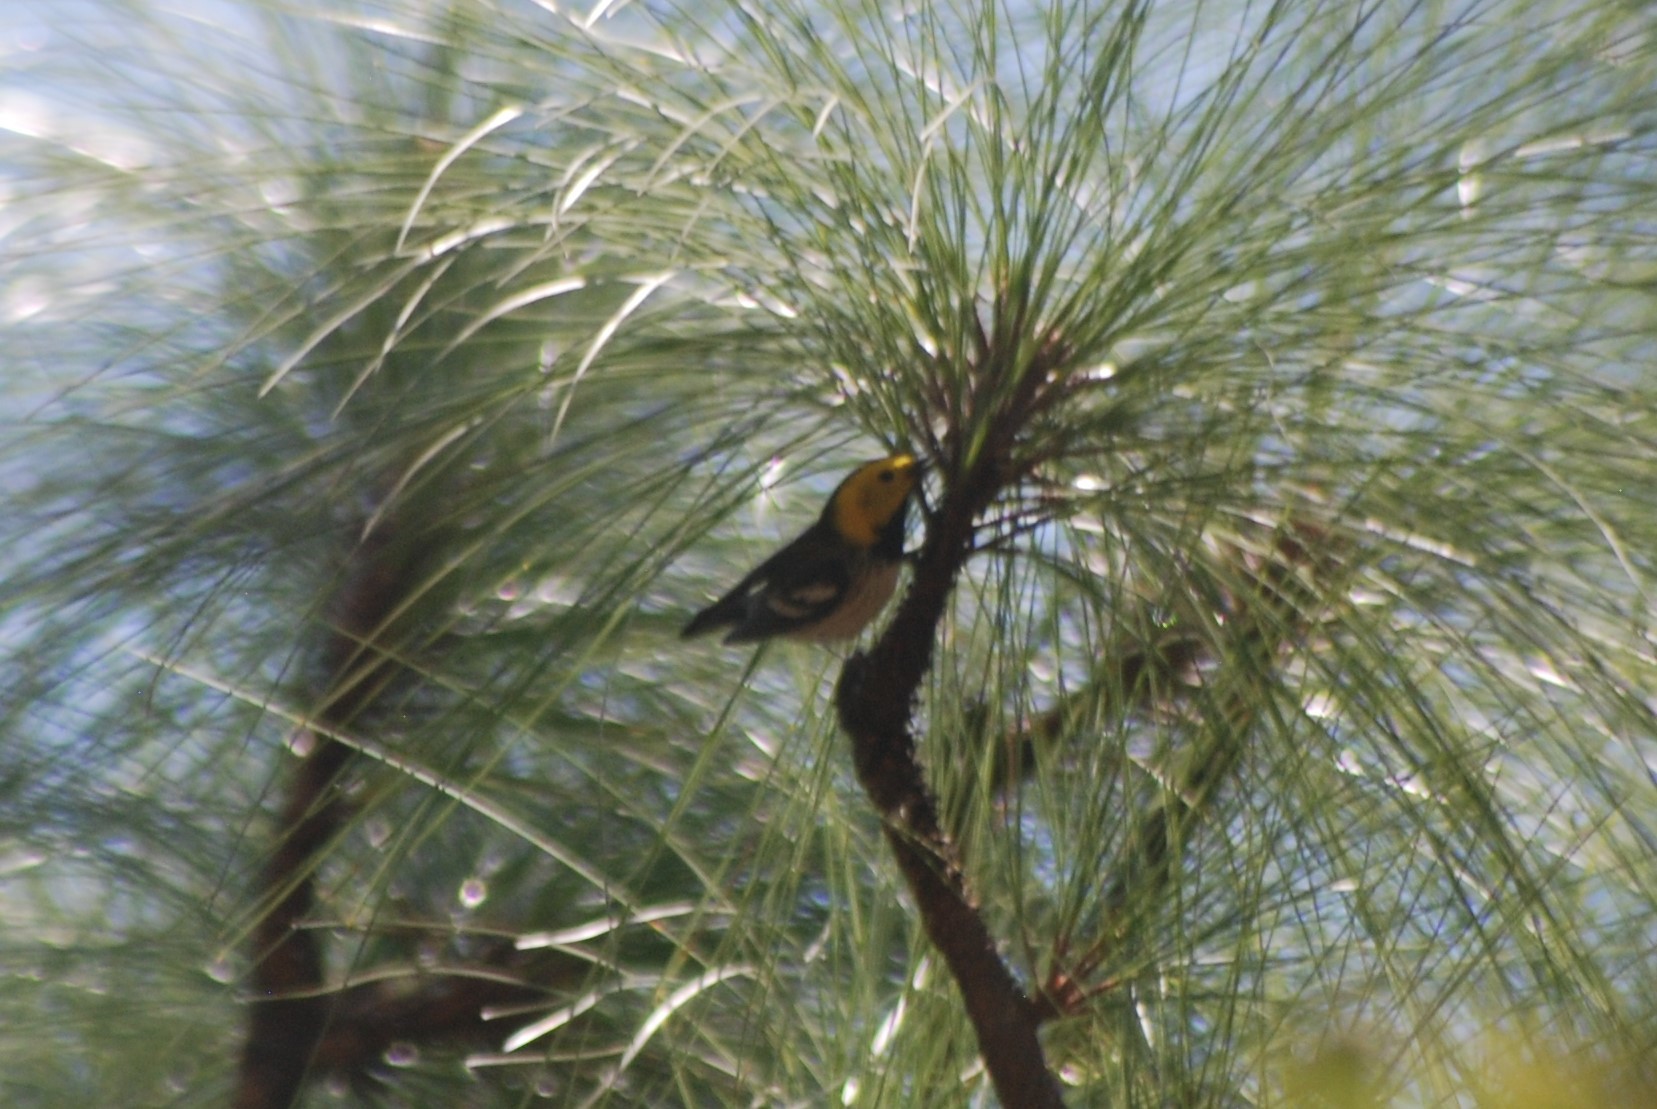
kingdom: Animalia
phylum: Chordata
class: Aves
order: Passeriformes
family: Parulidae
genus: Setophaga
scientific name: Setophaga occidentalis
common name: Hermit warbler
